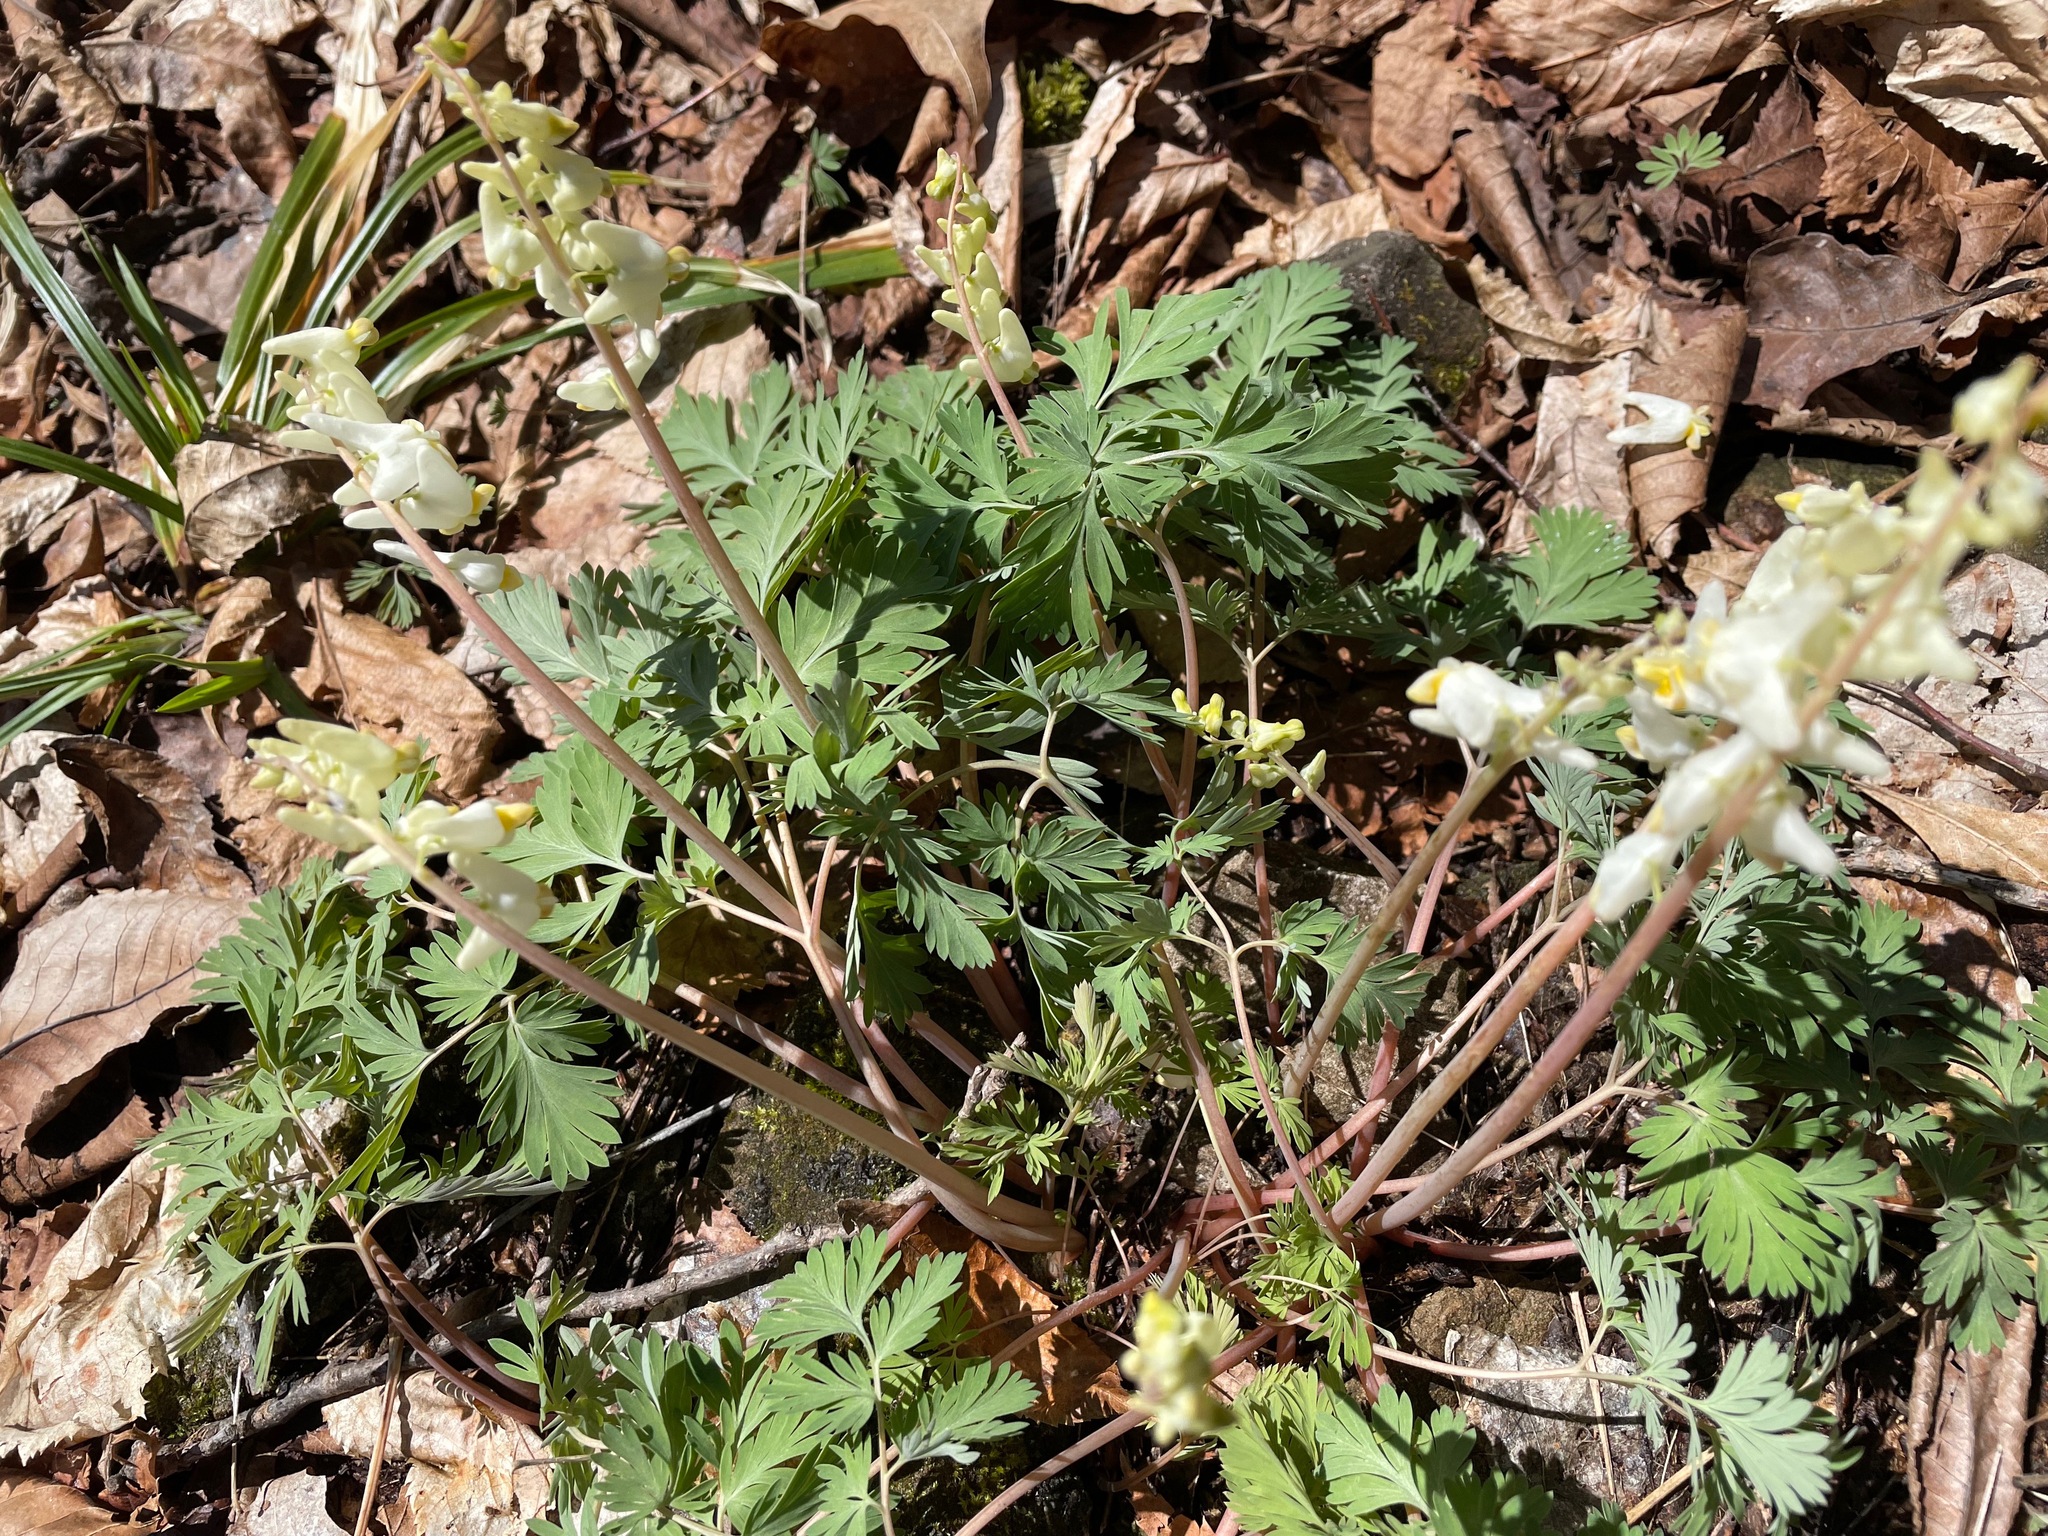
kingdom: Plantae
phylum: Tracheophyta
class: Magnoliopsida
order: Ranunculales
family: Papaveraceae
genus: Dicentra
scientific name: Dicentra cucullaria
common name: Dutchman's breeches
